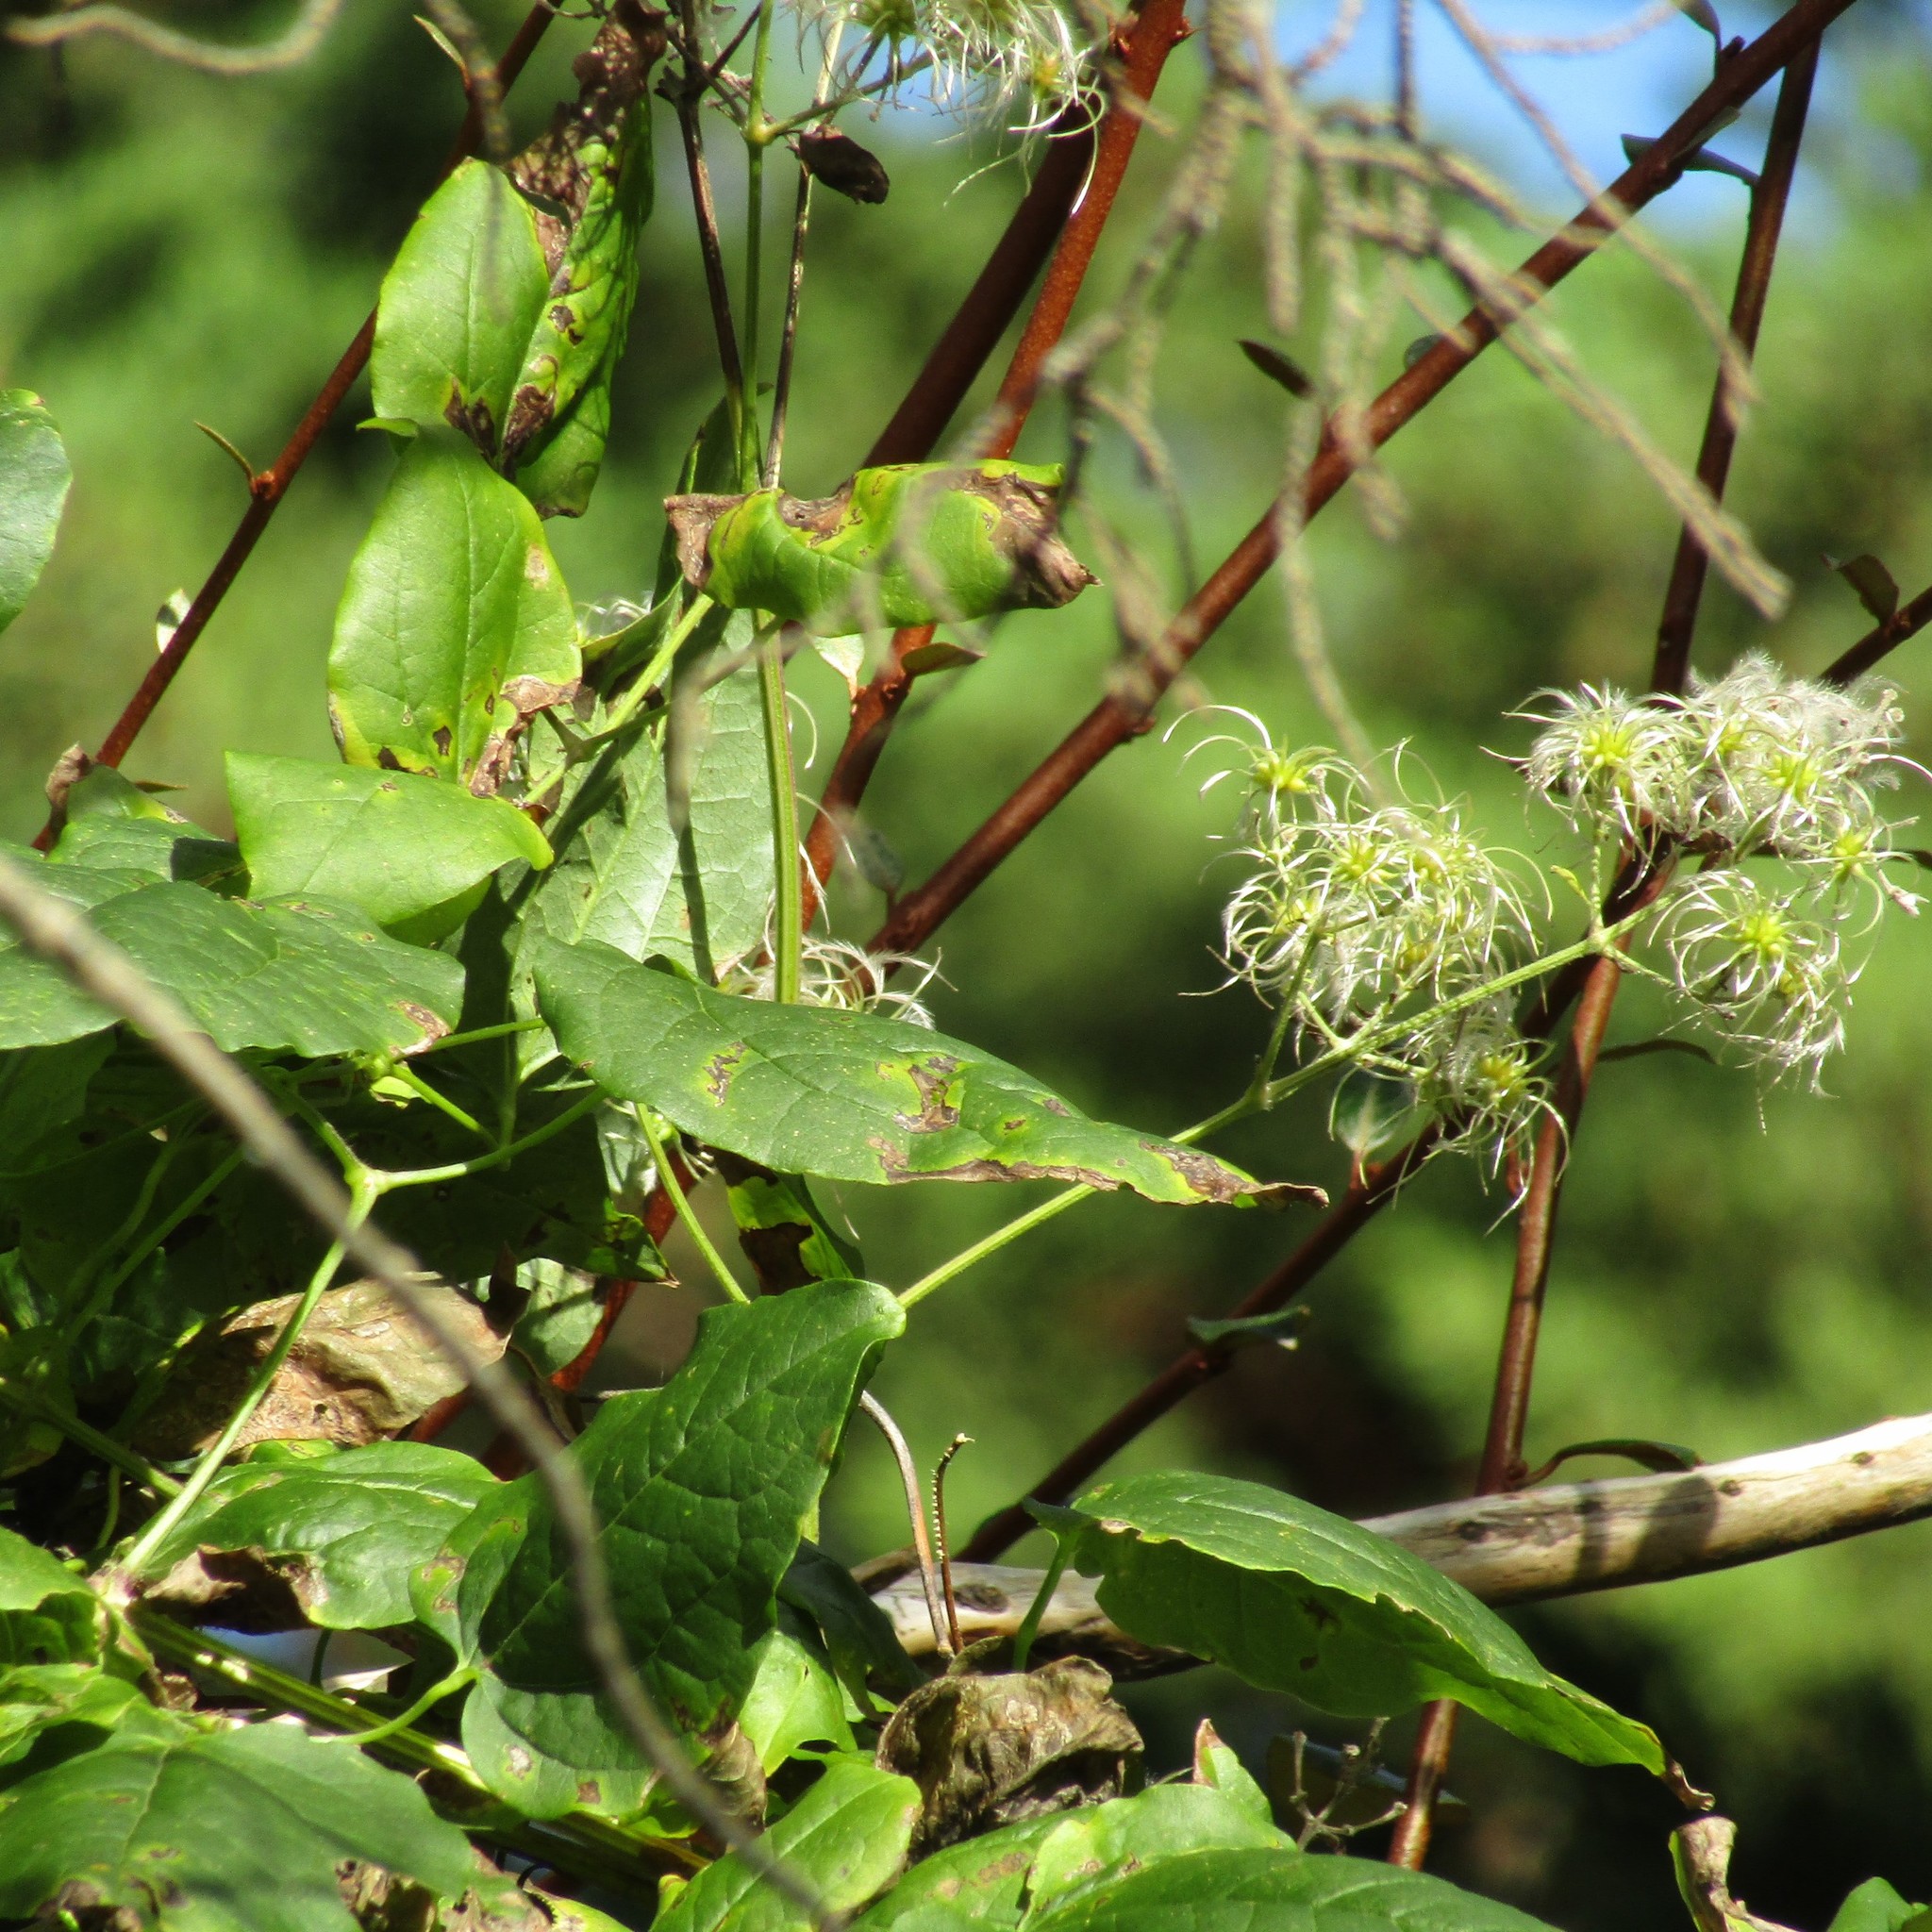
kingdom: Plantae
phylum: Tracheophyta
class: Magnoliopsida
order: Ranunculales
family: Ranunculaceae
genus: Clematis
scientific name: Clematis vitalba
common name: Evergreen clematis
